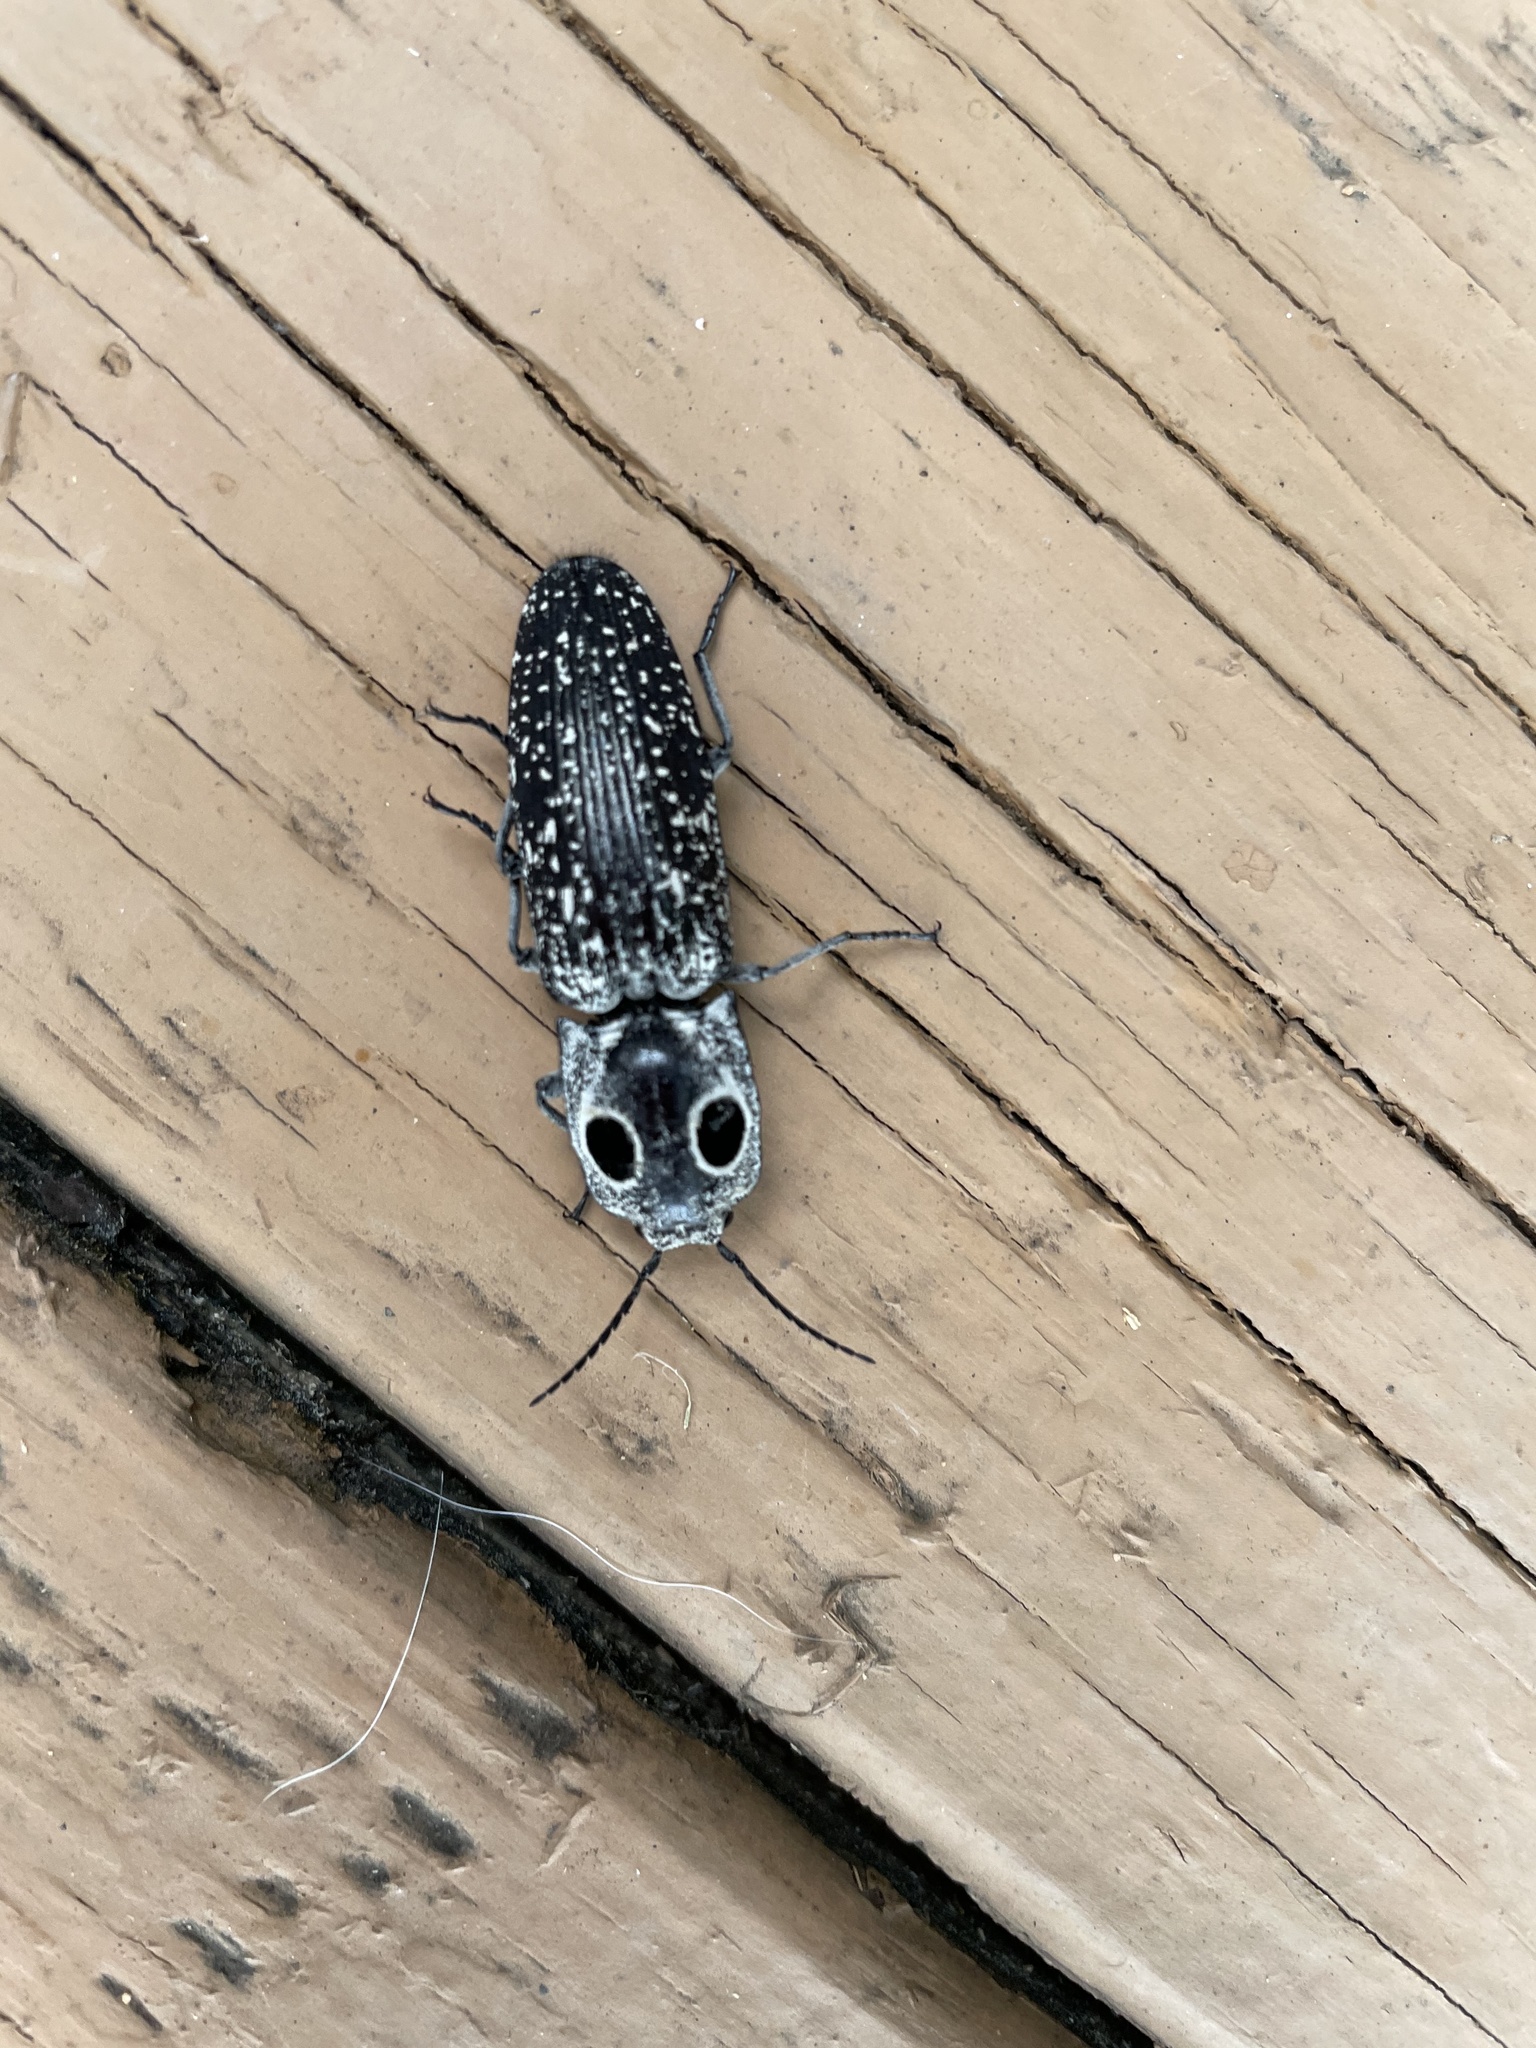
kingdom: Animalia
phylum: Arthropoda
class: Insecta
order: Coleoptera
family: Elateridae
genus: Alaus
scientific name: Alaus oculatus
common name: Eastern eyed click beetle
